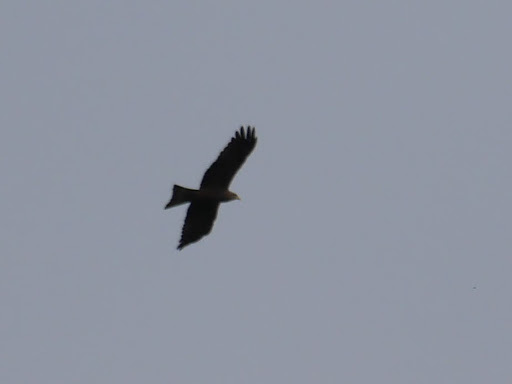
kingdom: Animalia
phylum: Chordata
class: Aves
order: Accipitriformes
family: Accipitridae
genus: Milvus
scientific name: Milvus migrans
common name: Black kite
